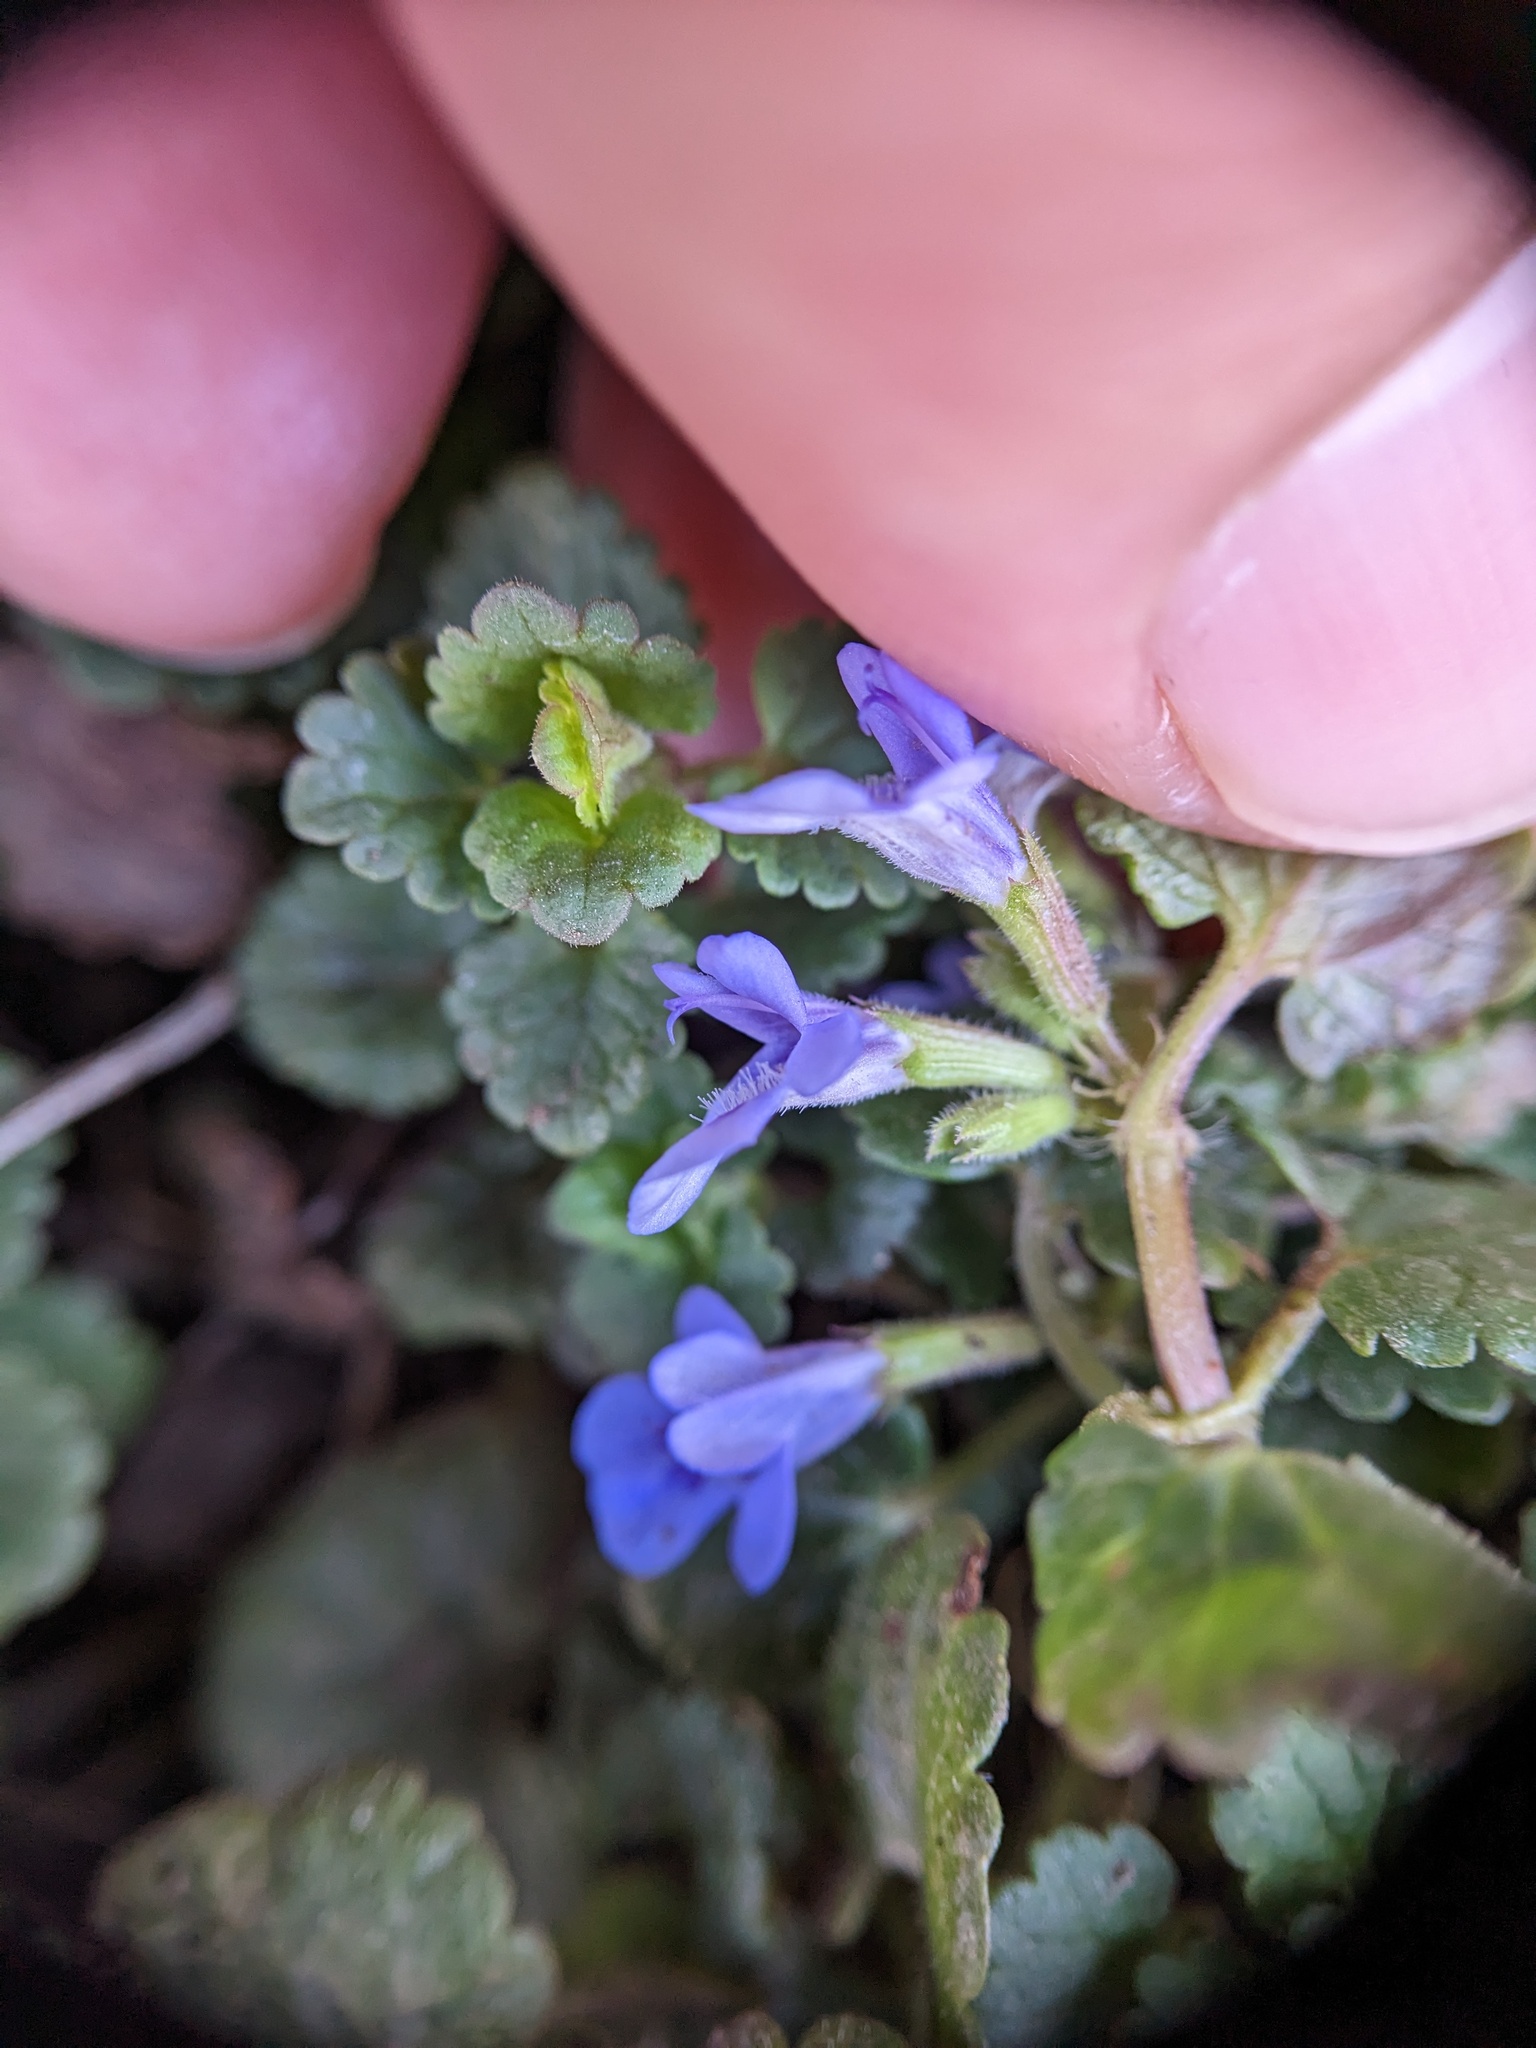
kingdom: Plantae
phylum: Tracheophyta
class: Magnoliopsida
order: Lamiales
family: Lamiaceae
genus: Glechoma
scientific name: Glechoma hederacea
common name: Ground ivy
